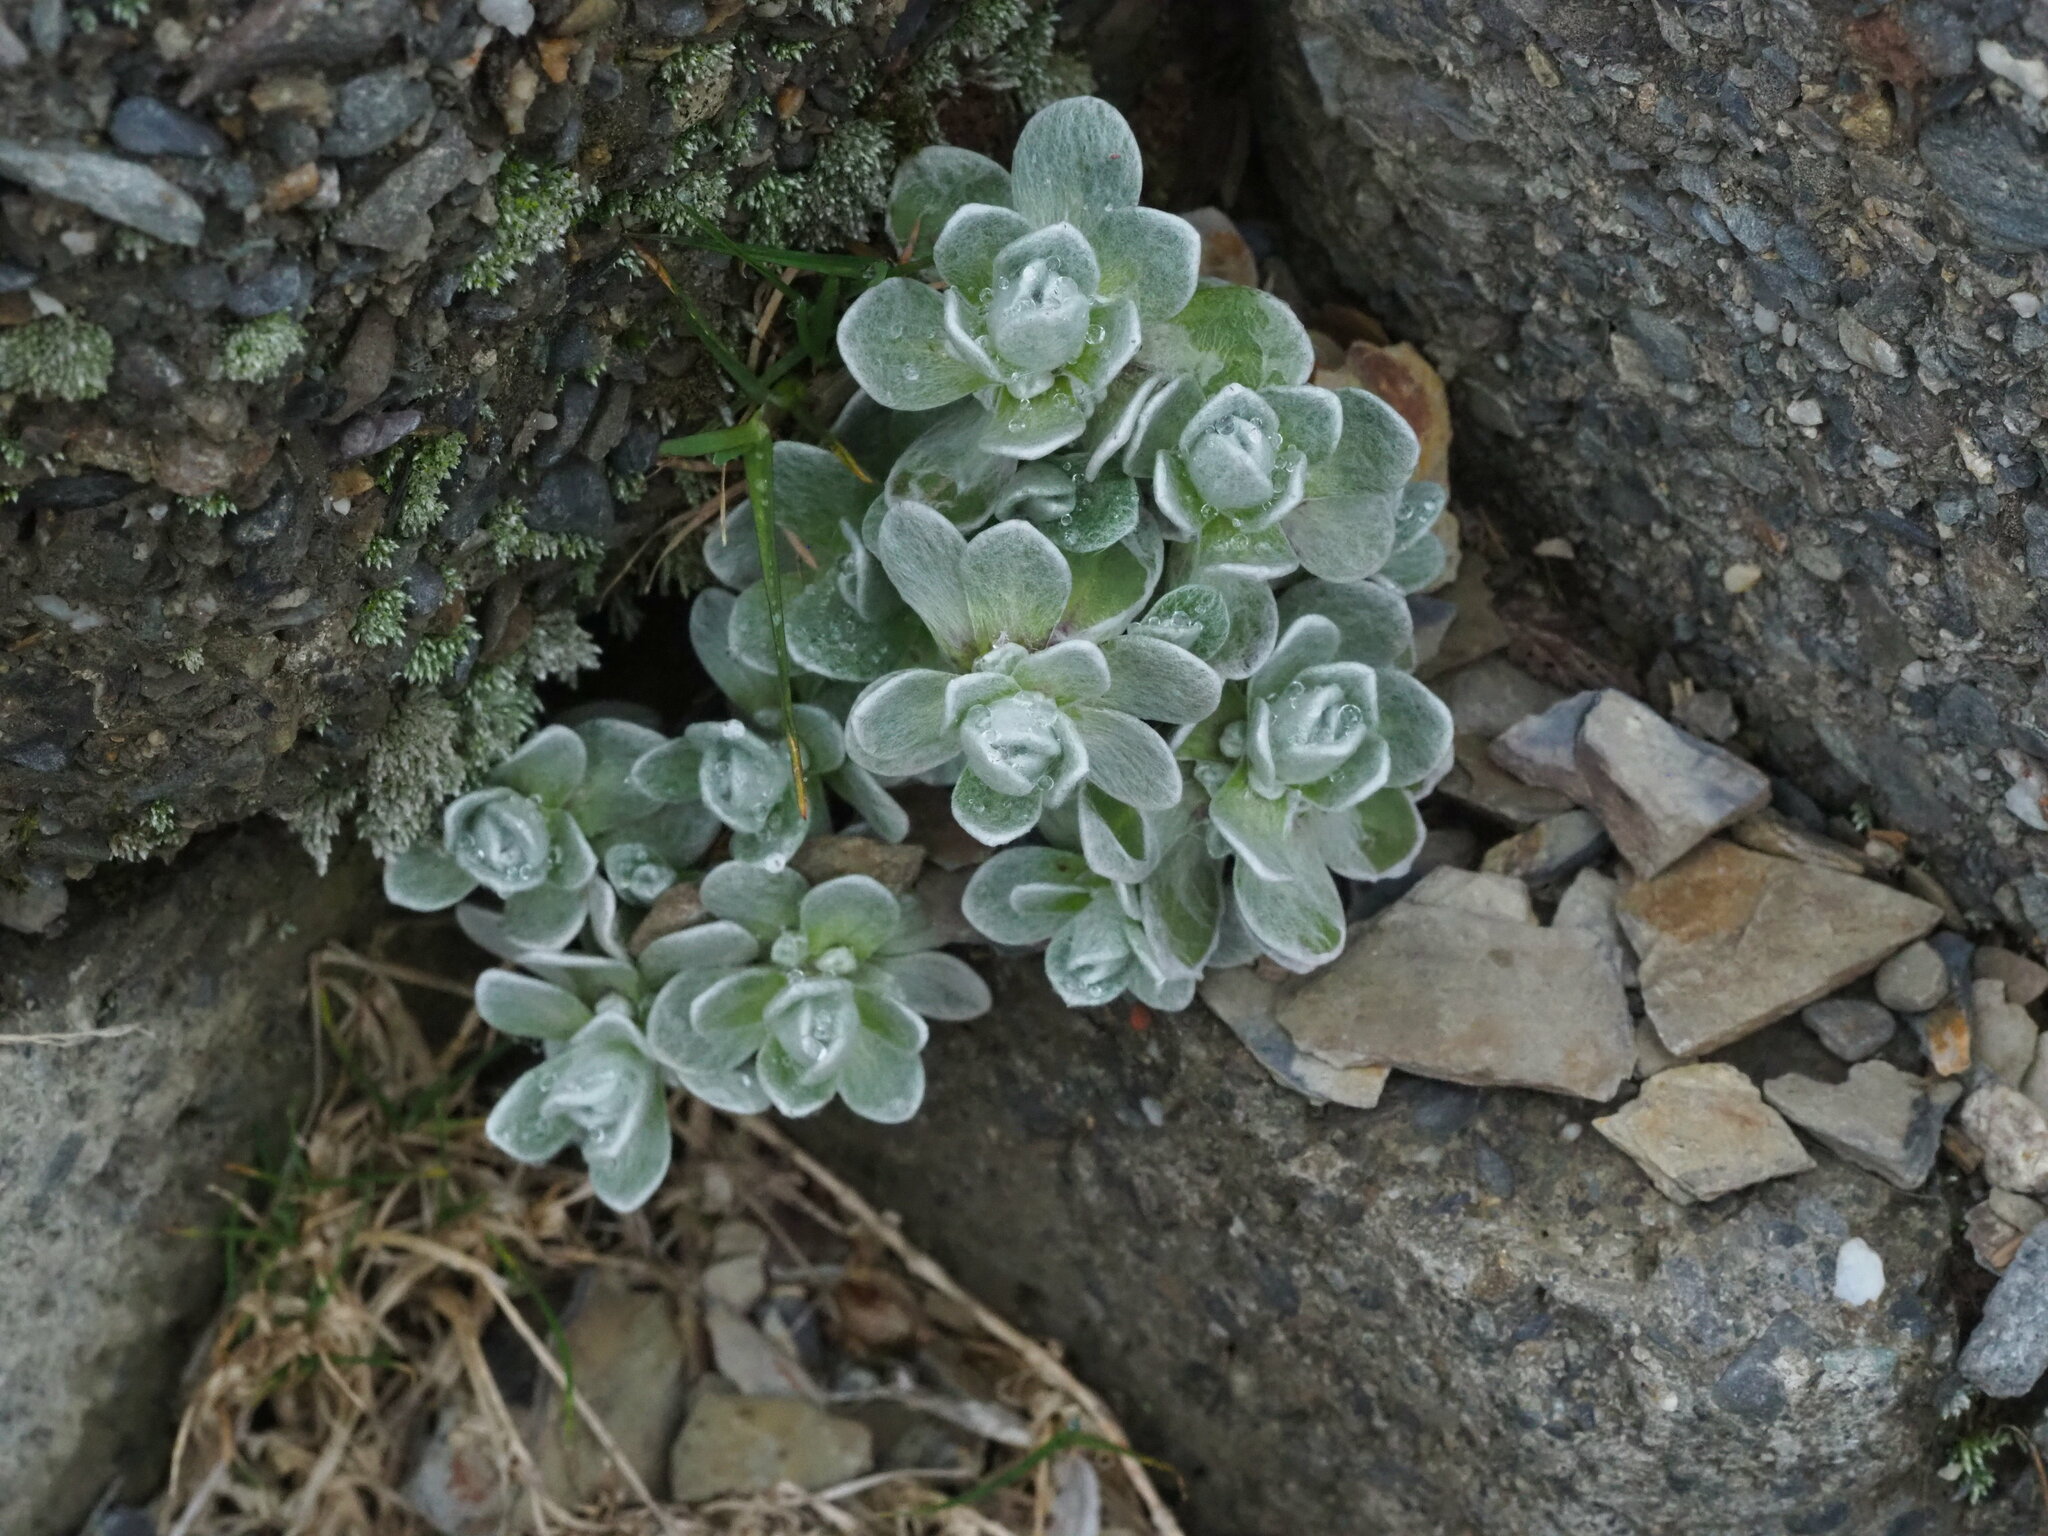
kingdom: Plantae
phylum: Tracheophyta
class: Magnoliopsida
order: Asterales
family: Asteraceae
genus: Anaphalis
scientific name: Anaphalis nepalensis
